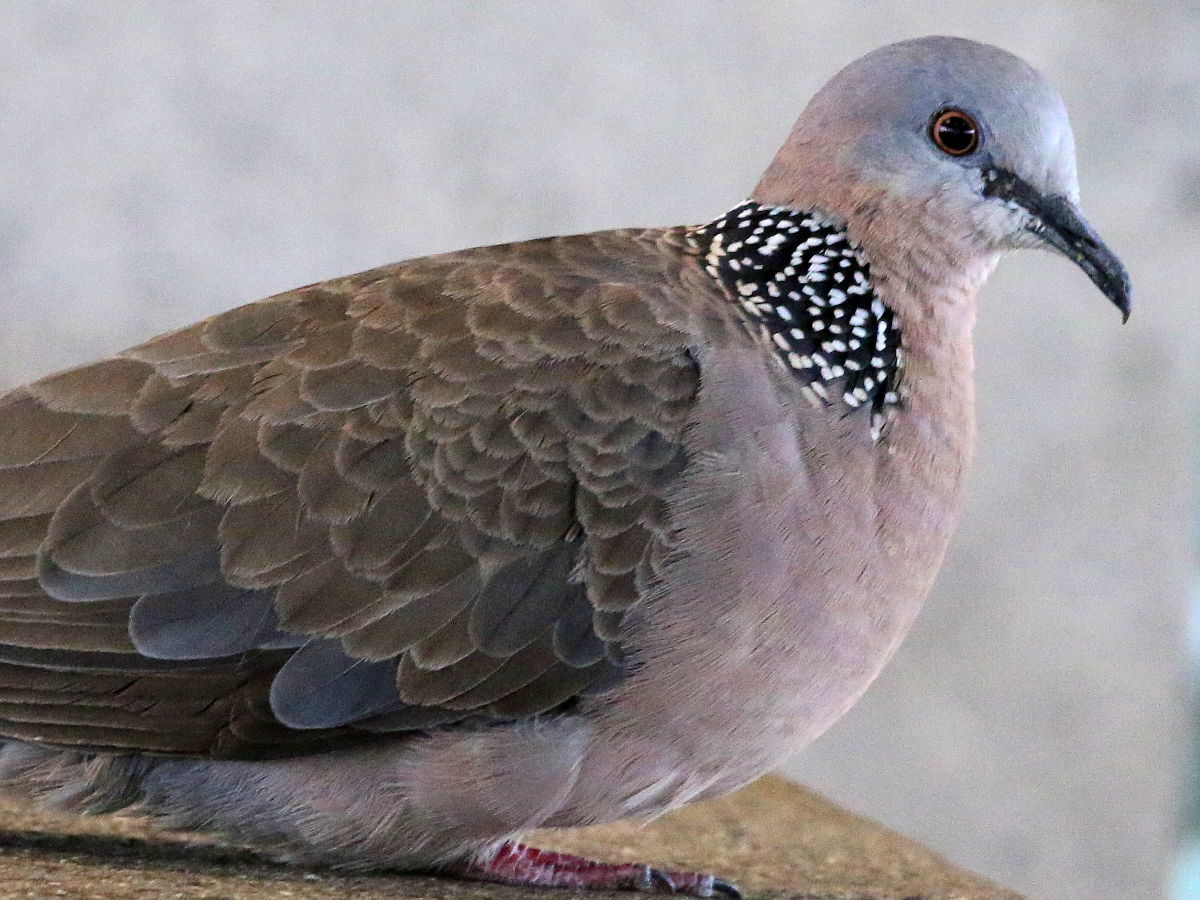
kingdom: Animalia
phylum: Chordata
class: Aves
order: Columbiformes
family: Columbidae
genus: Spilopelia
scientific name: Spilopelia chinensis
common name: Spotted dove
